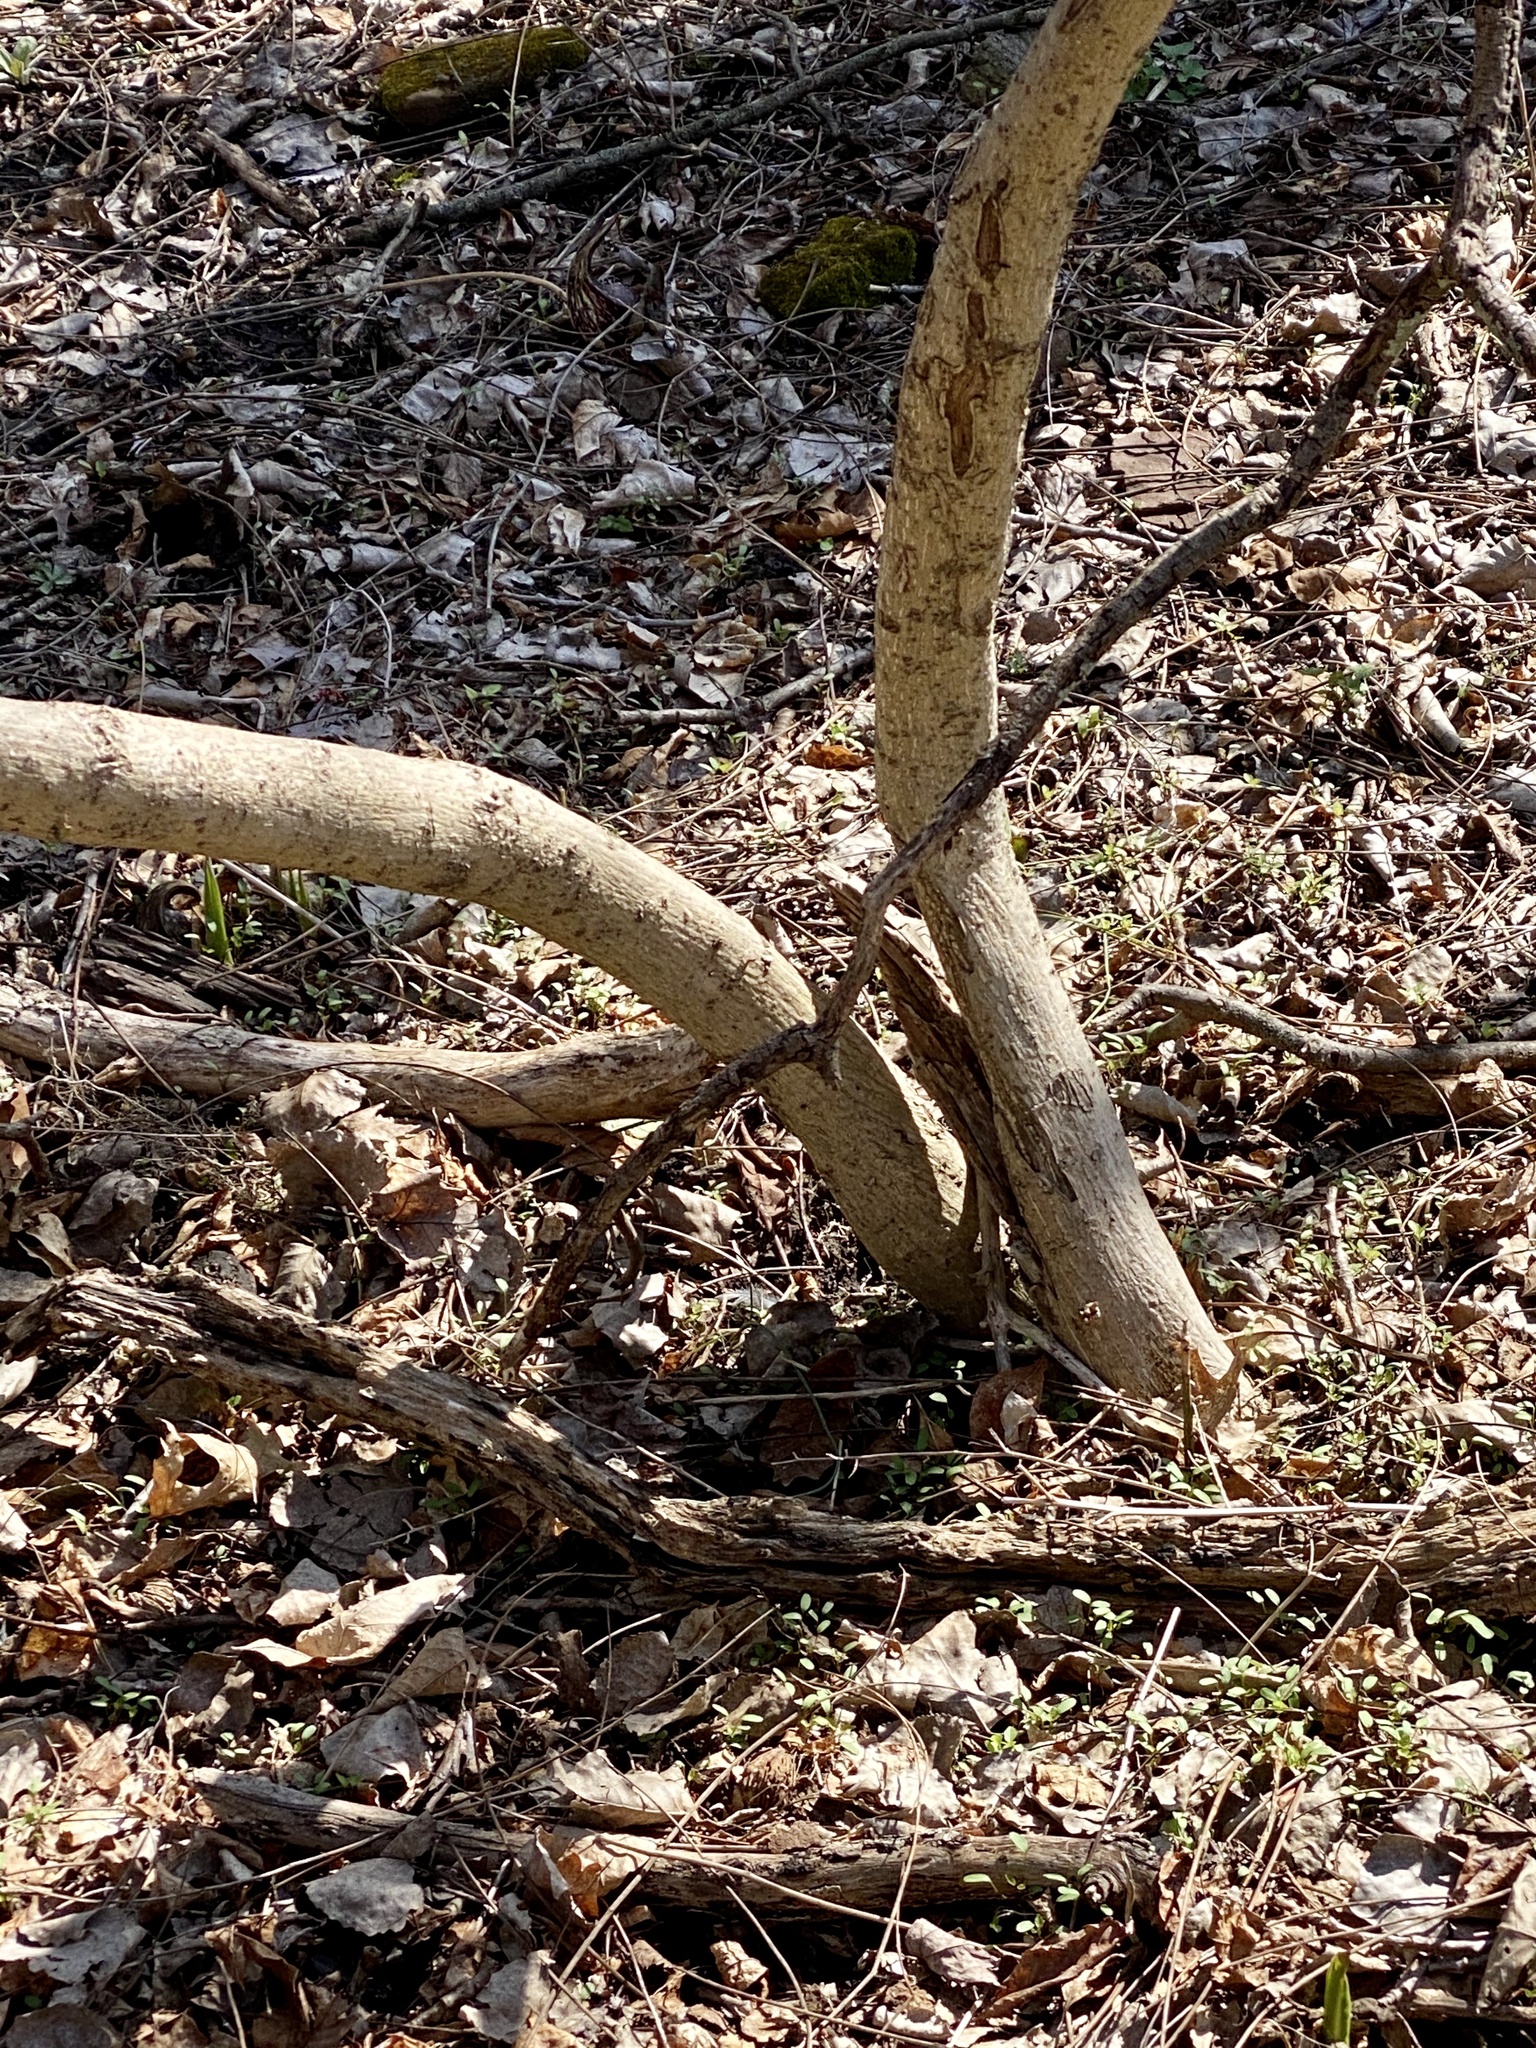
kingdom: Plantae
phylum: Tracheophyta
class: Magnoliopsida
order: Laurales
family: Lauraceae
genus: Lindera
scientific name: Lindera benzoin
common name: Spicebush
